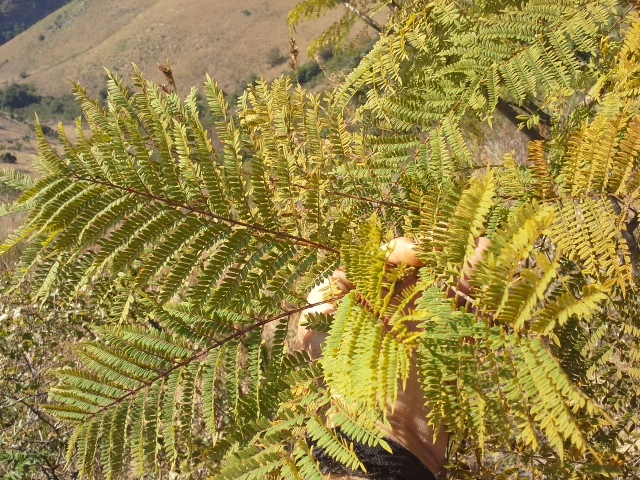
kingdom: Plantae
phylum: Tracheophyta
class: Magnoliopsida
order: Lamiales
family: Bignoniaceae
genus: Jacaranda
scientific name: Jacaranda mimosifolia
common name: Black poui
